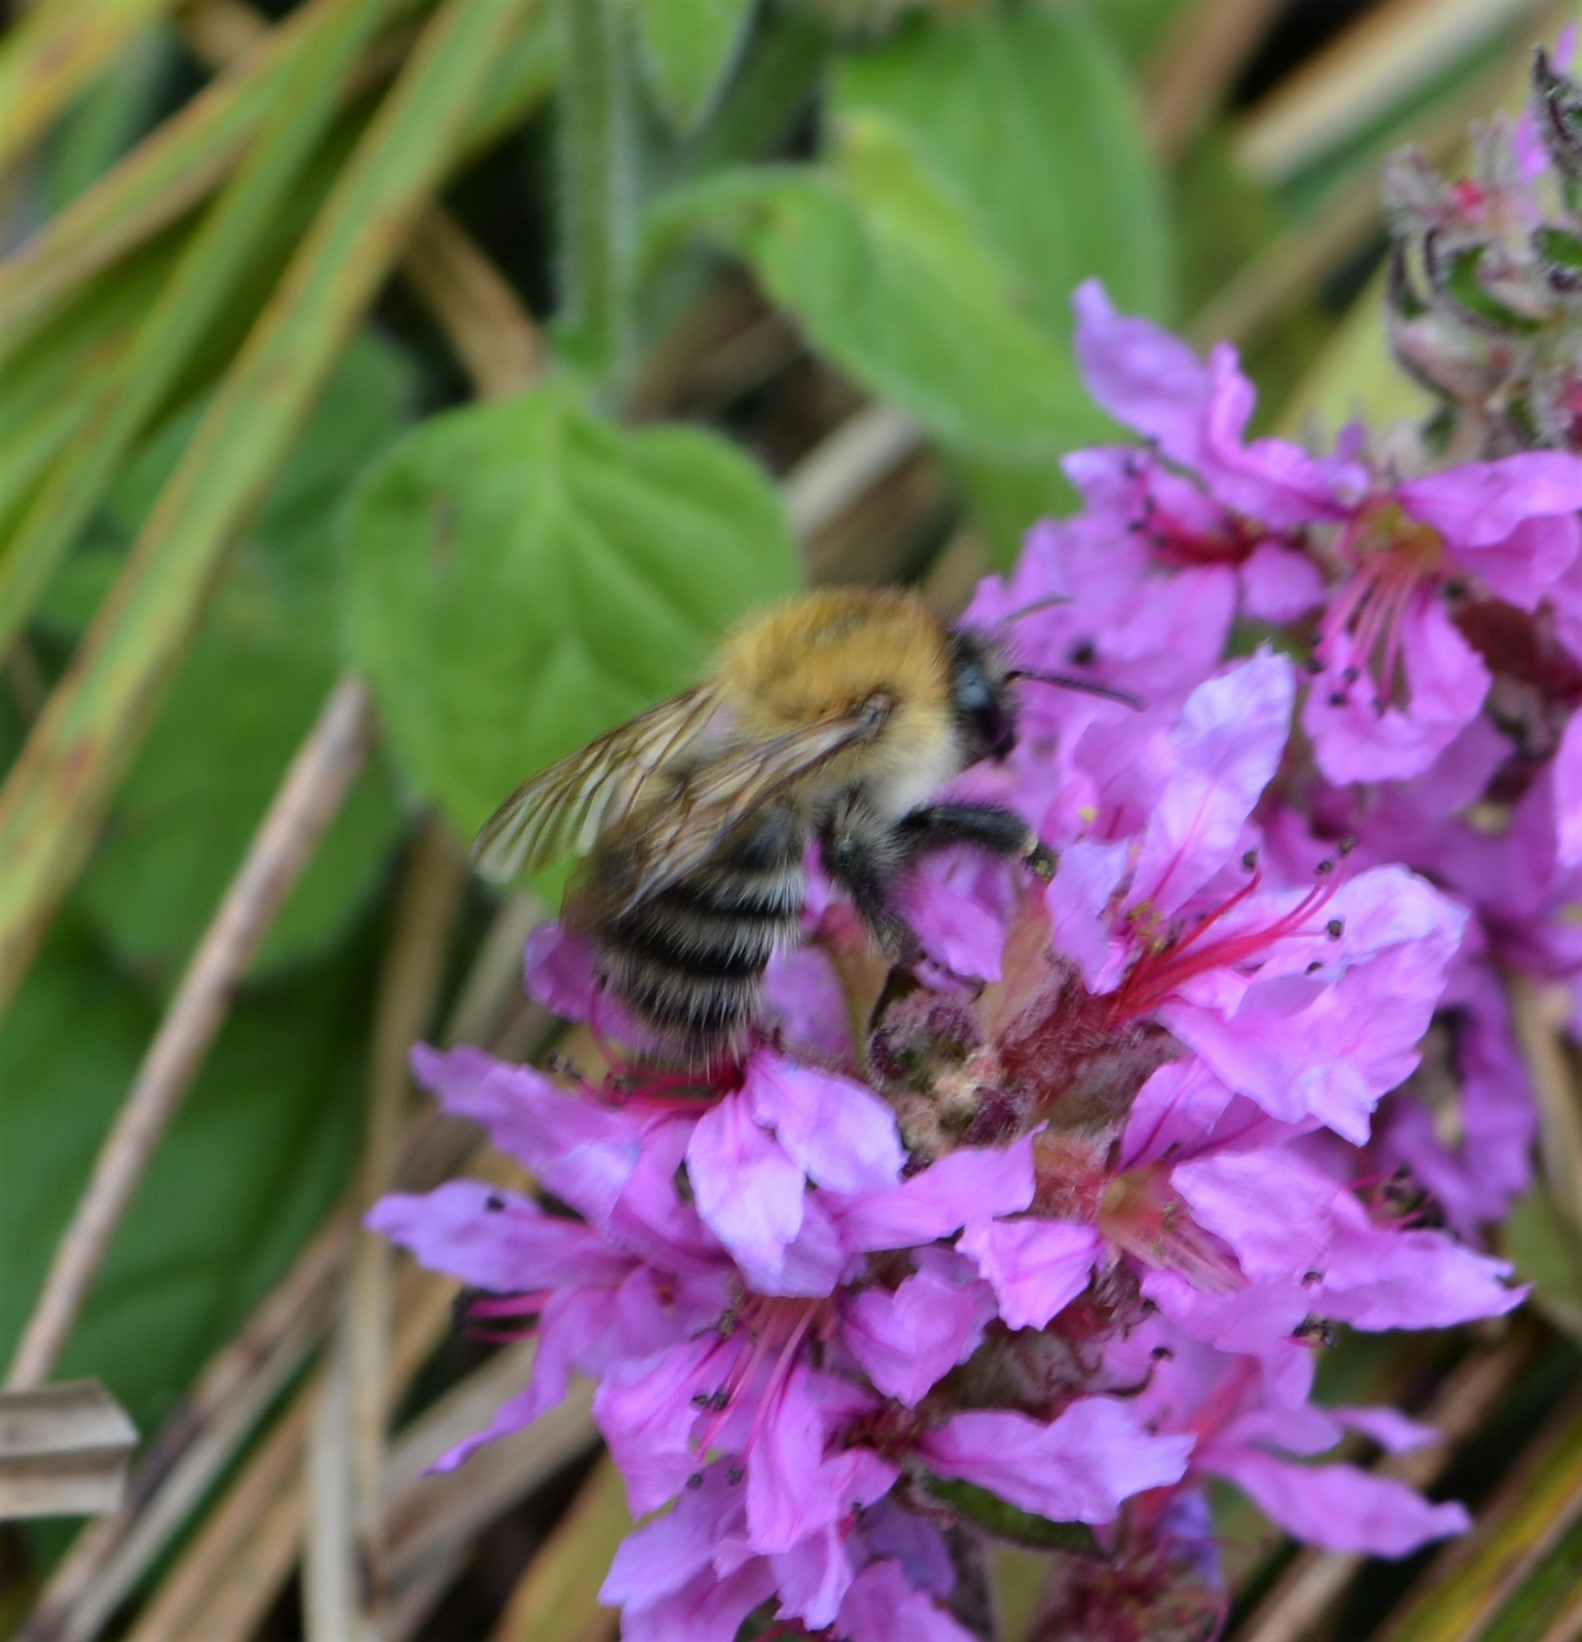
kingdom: Animalia
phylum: Arthropoda
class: Insecta
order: Hymenoptera
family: Apidae
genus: Bombus
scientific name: Bombus pascuorum
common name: Common carder bee
